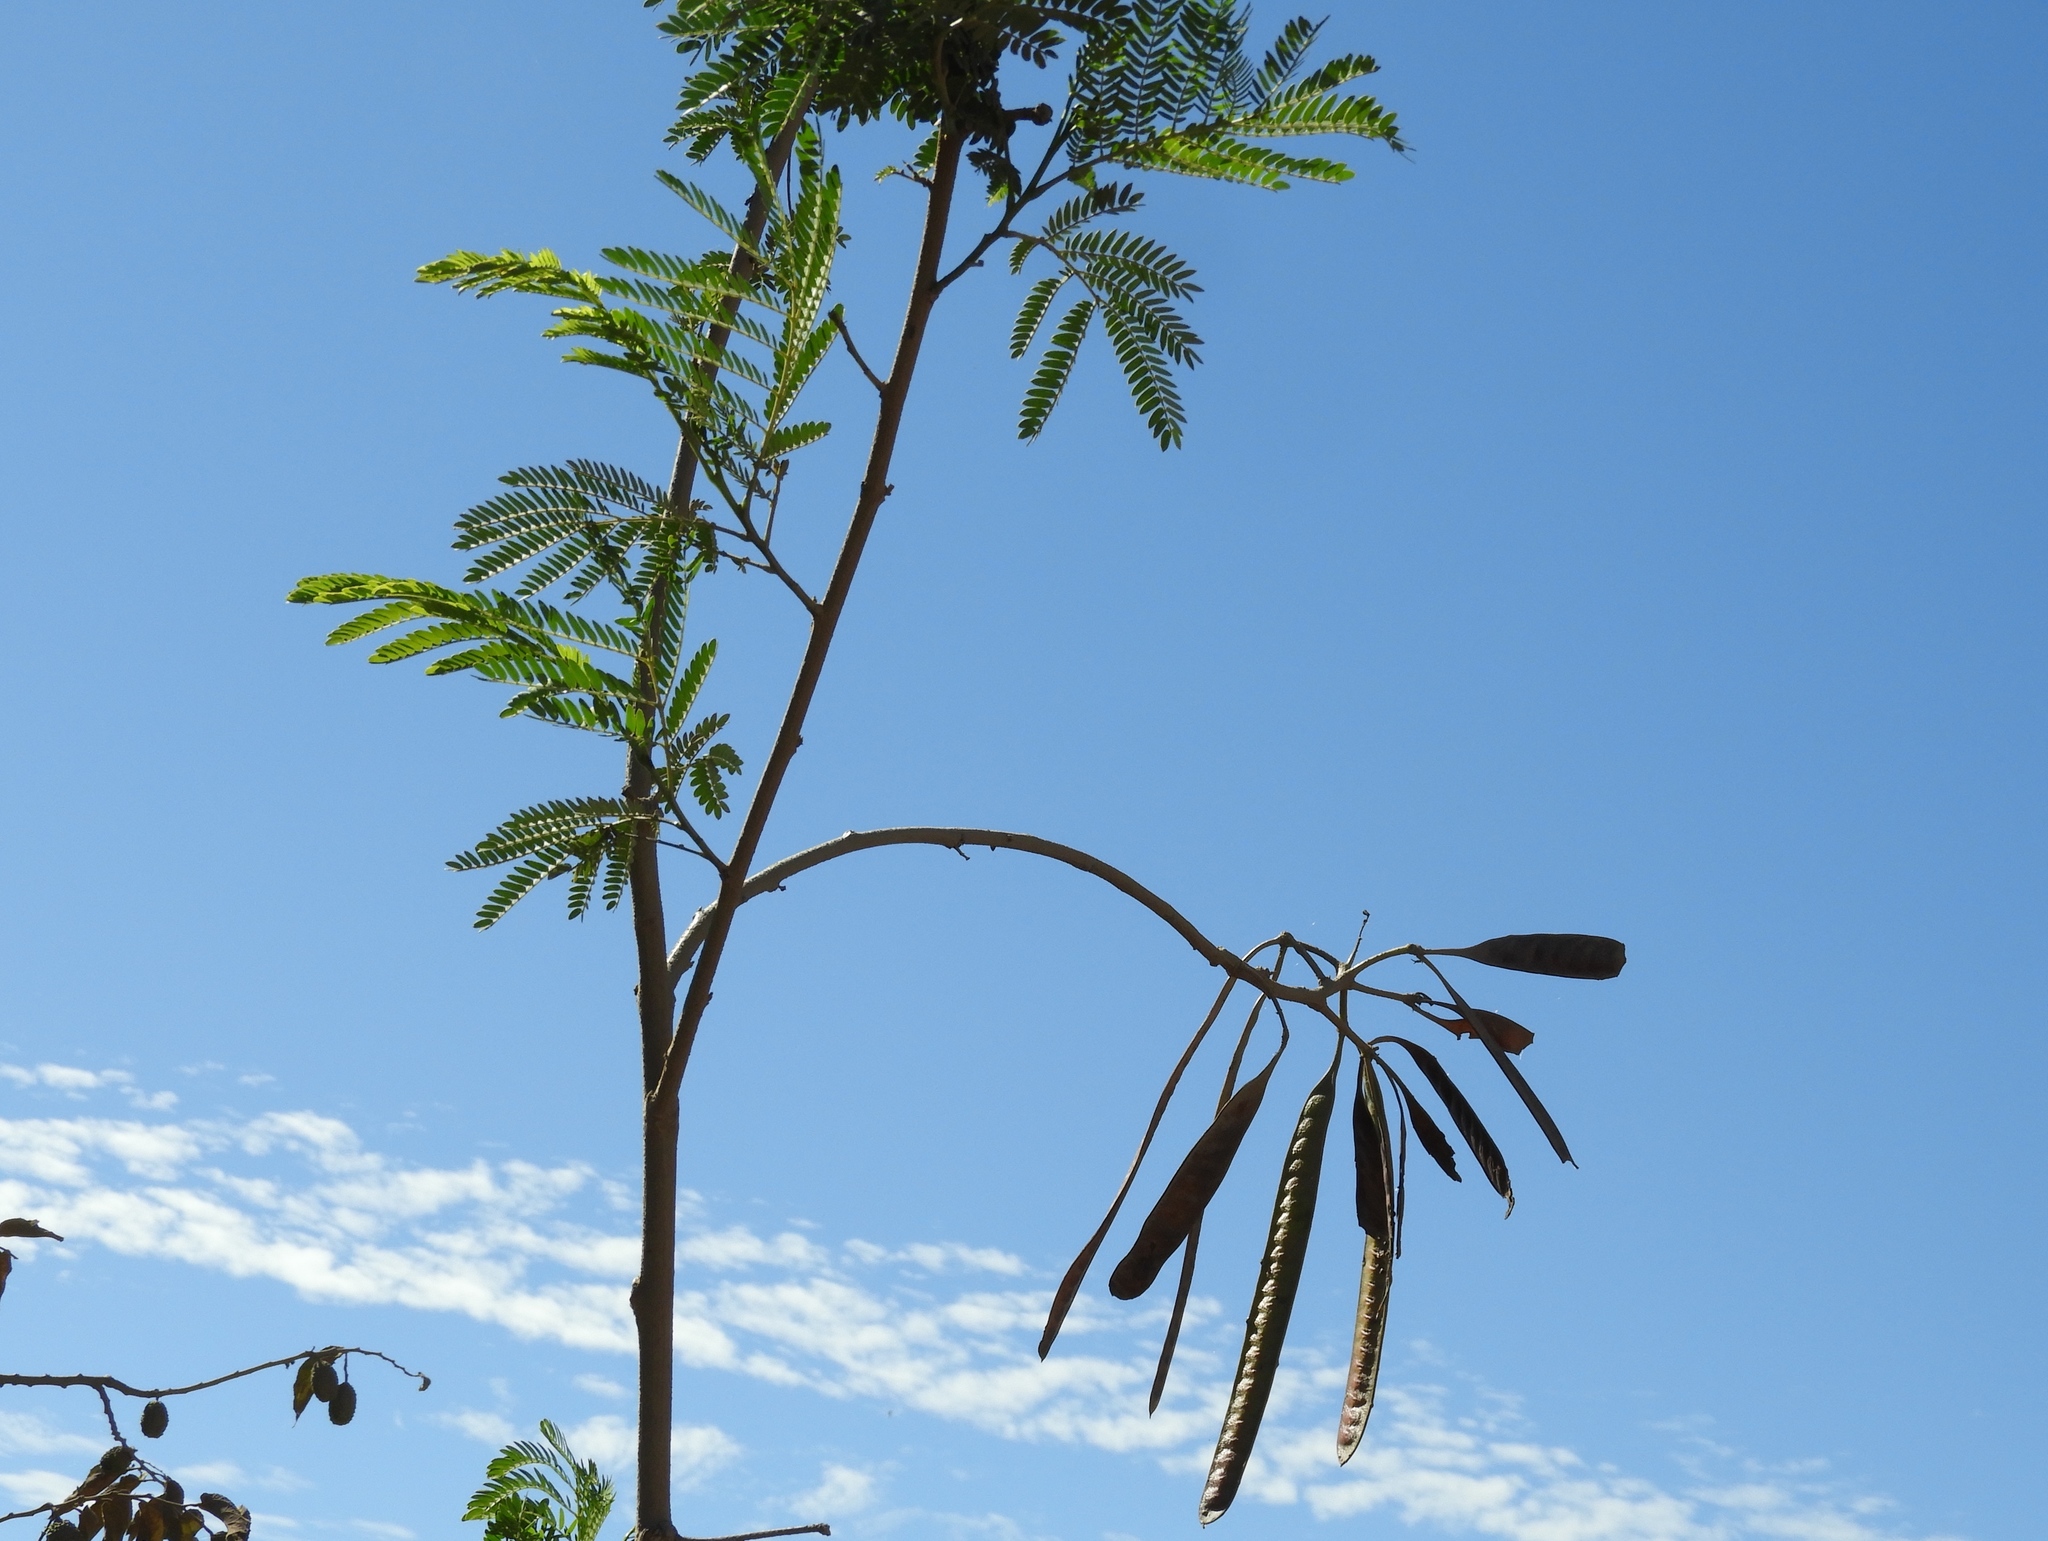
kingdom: Plantae
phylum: Tracheophyta
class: Magnoliopsida
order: Fabales
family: Fabaceae
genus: Leucaena
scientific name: Leucaena leucocephala
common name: White leadtree
